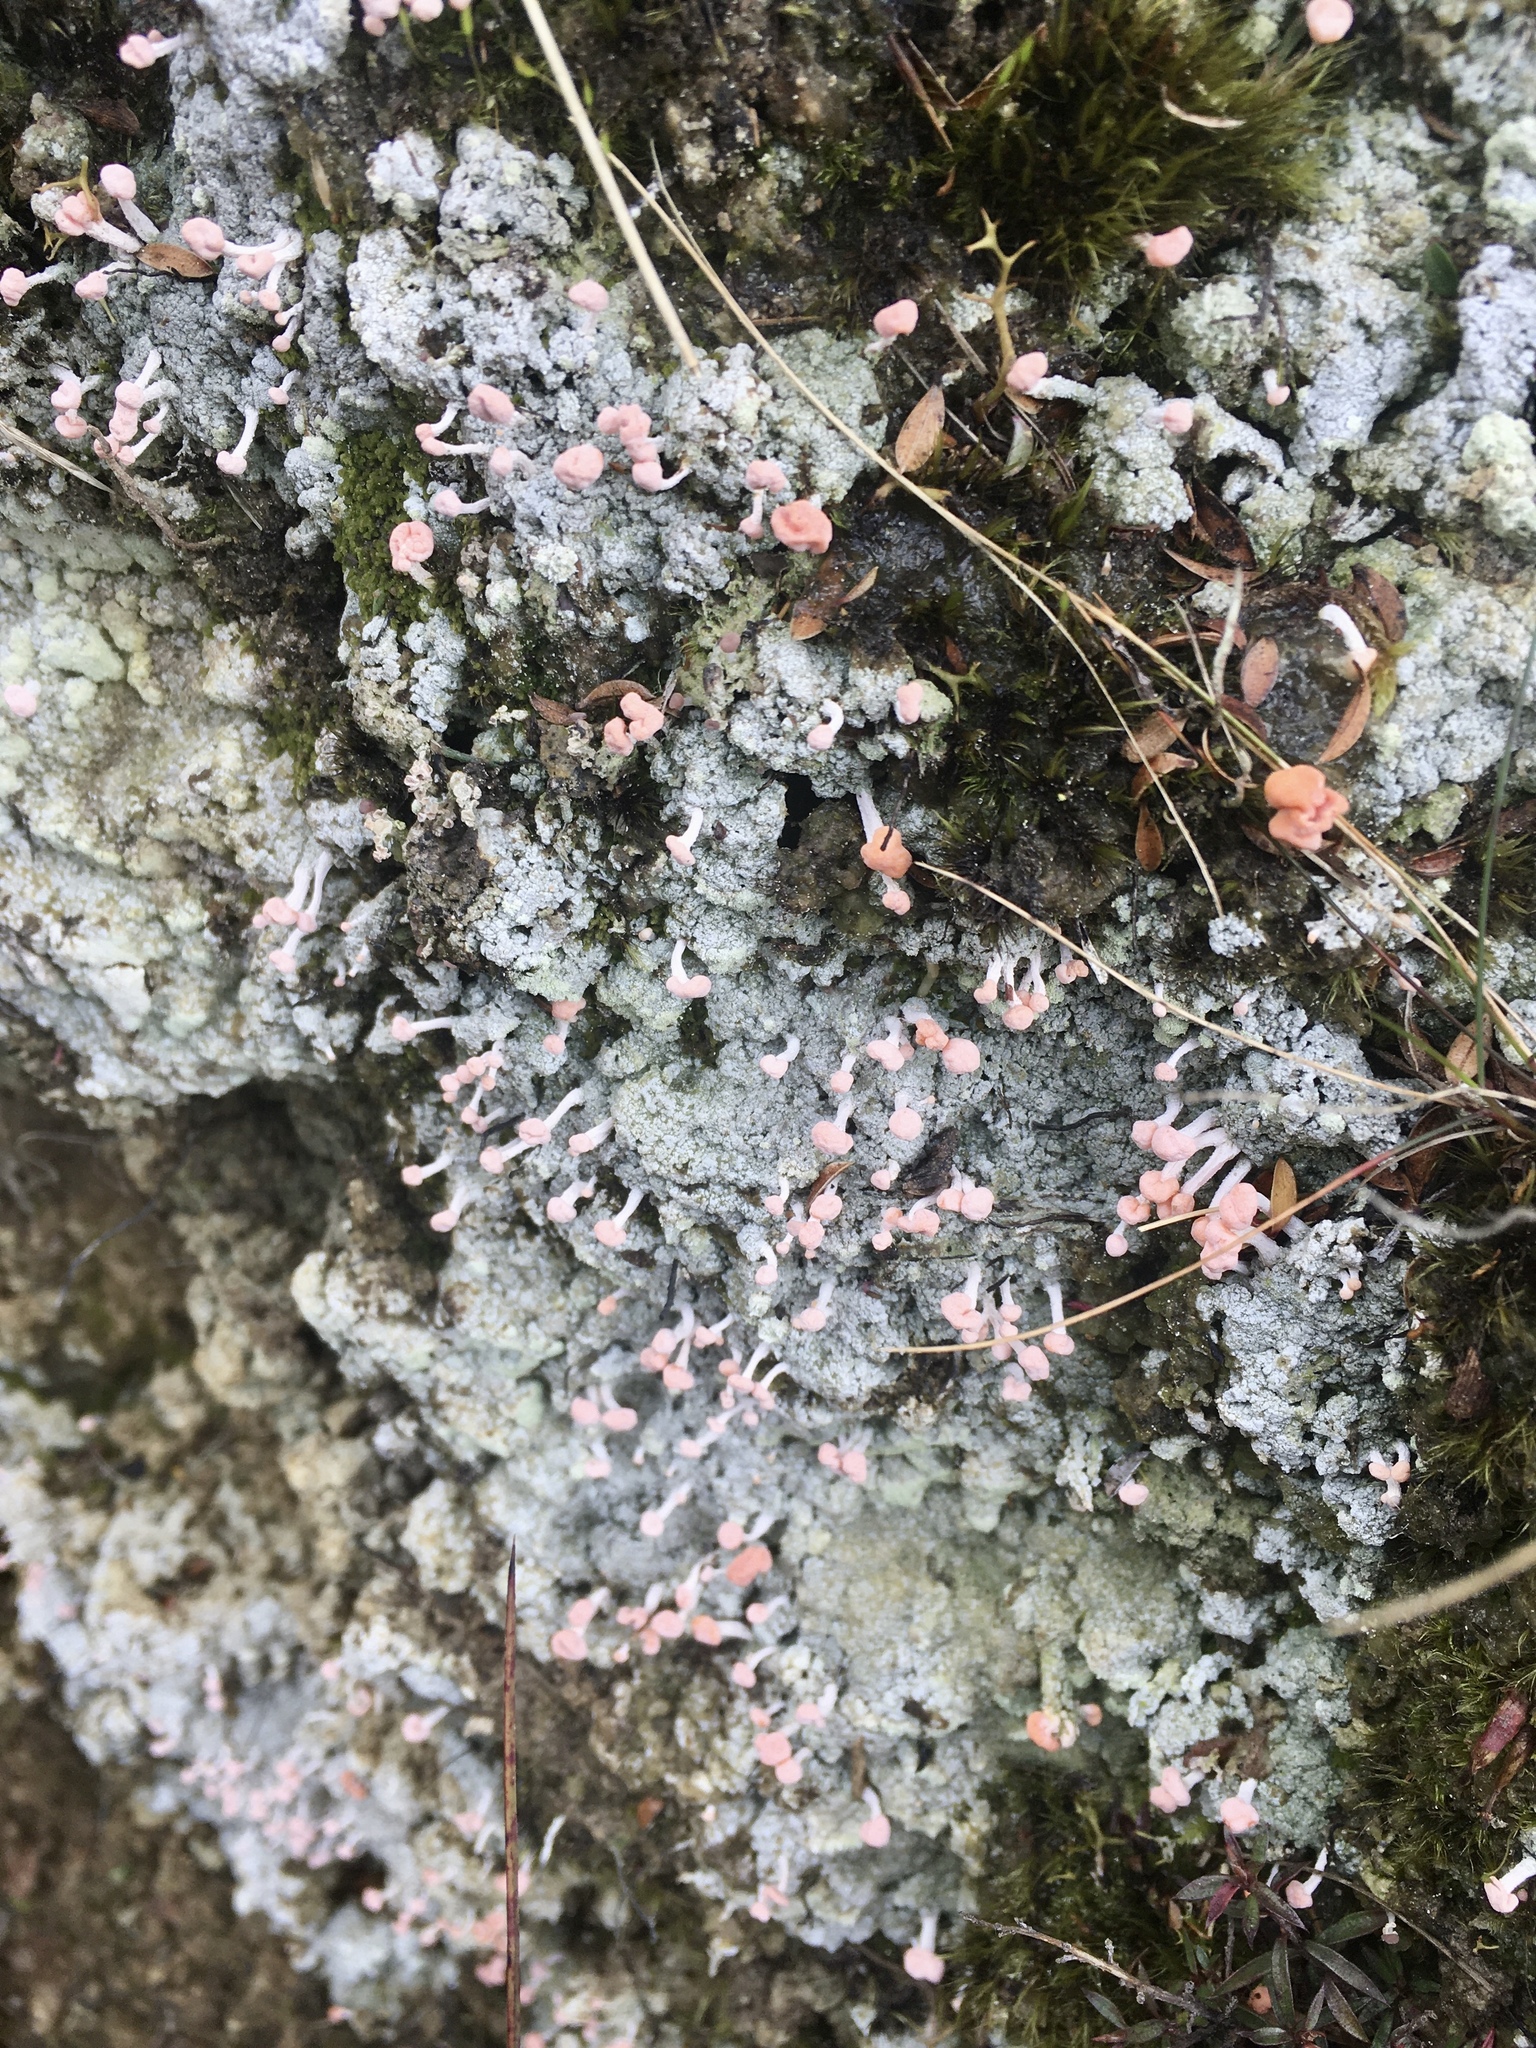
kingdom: Fungi
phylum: Ascomycota
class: Lecanoromycetes
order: Pertusariales
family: Icmadophilaceae
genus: Dibaeis
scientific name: Dibaeis arcuata
